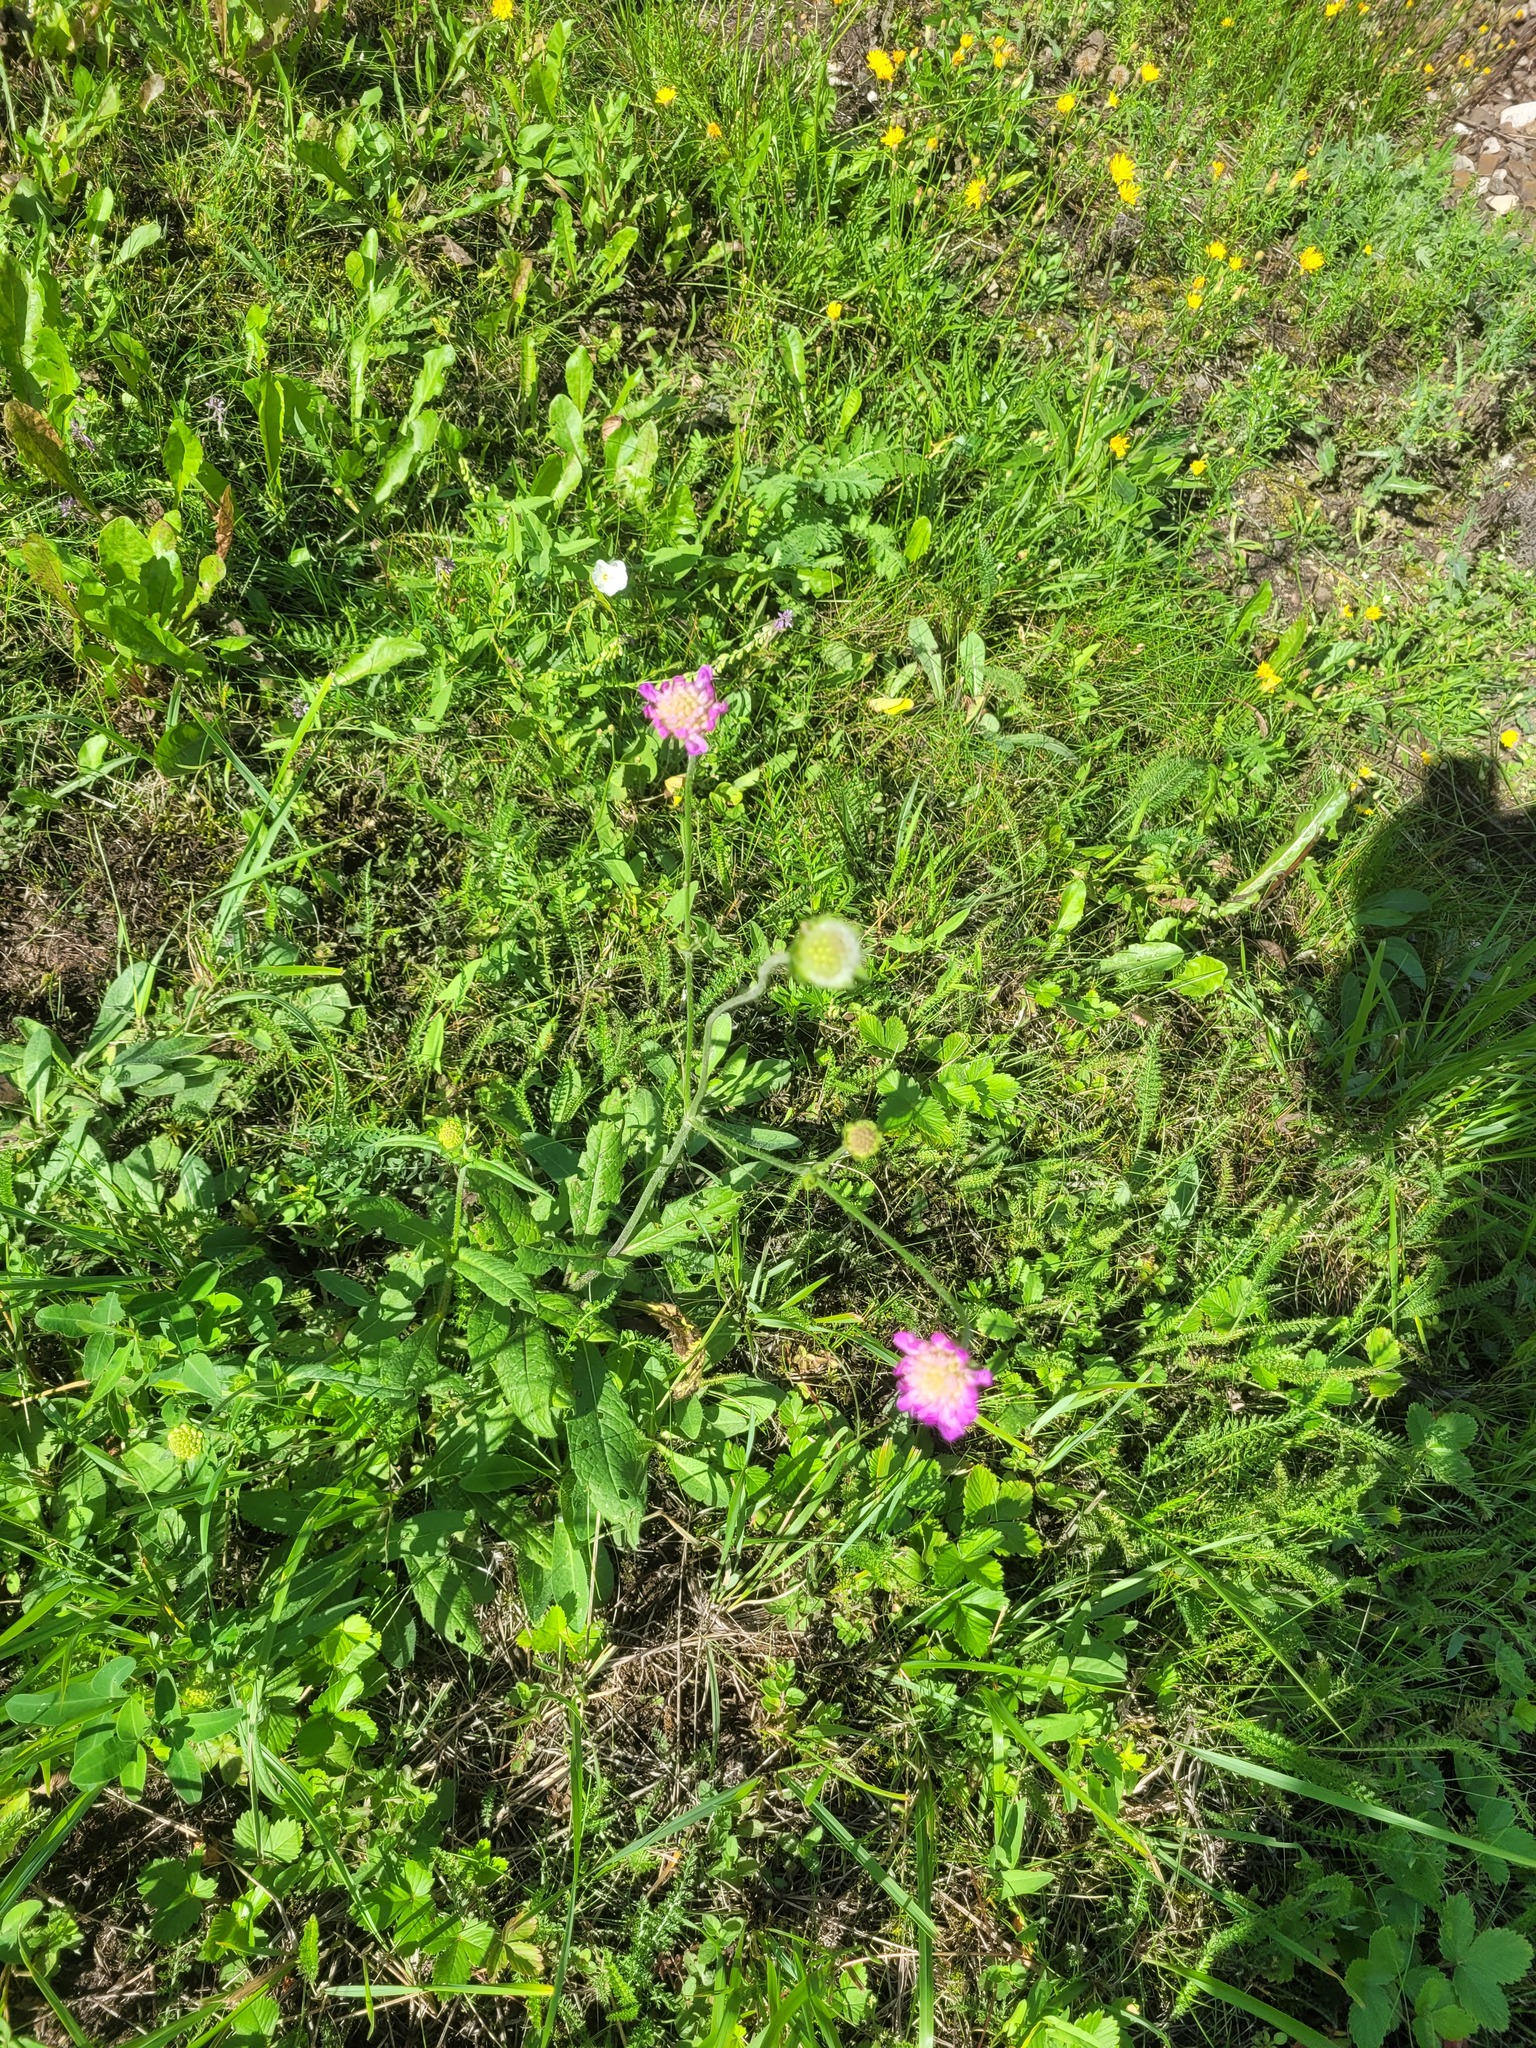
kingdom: Plantae
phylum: Tracheophyta
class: Magnoliopsida
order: Dipsacales
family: Caprifoliaceae
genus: Knautia
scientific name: Knautia arvensis
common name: Field scabiosa
